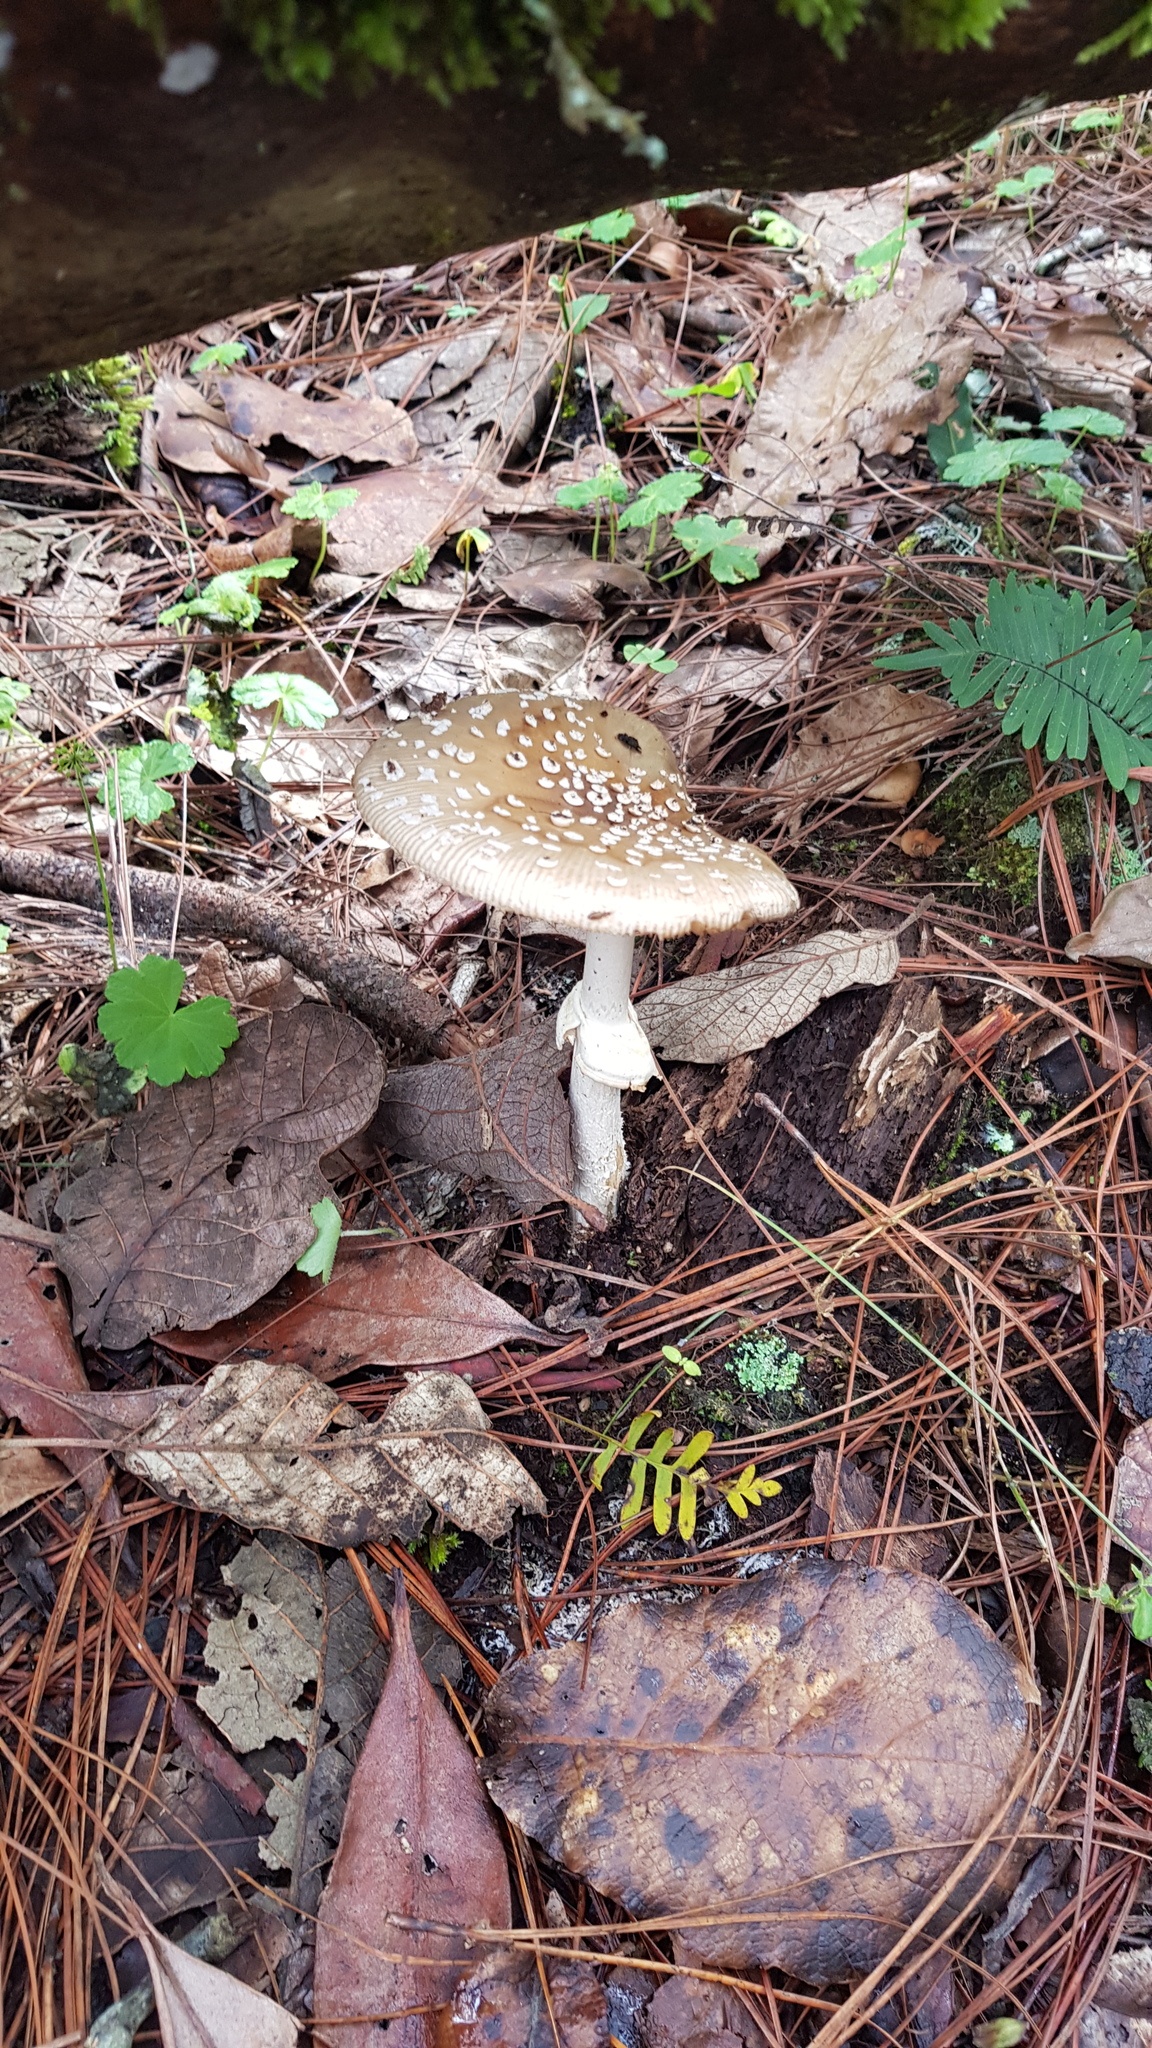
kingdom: Fungi
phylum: Basidiomycota
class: Agaricomycetes
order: Agaricales
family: Amanitaceae
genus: Amanita
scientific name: Amanita pantherina
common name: Panthercap
